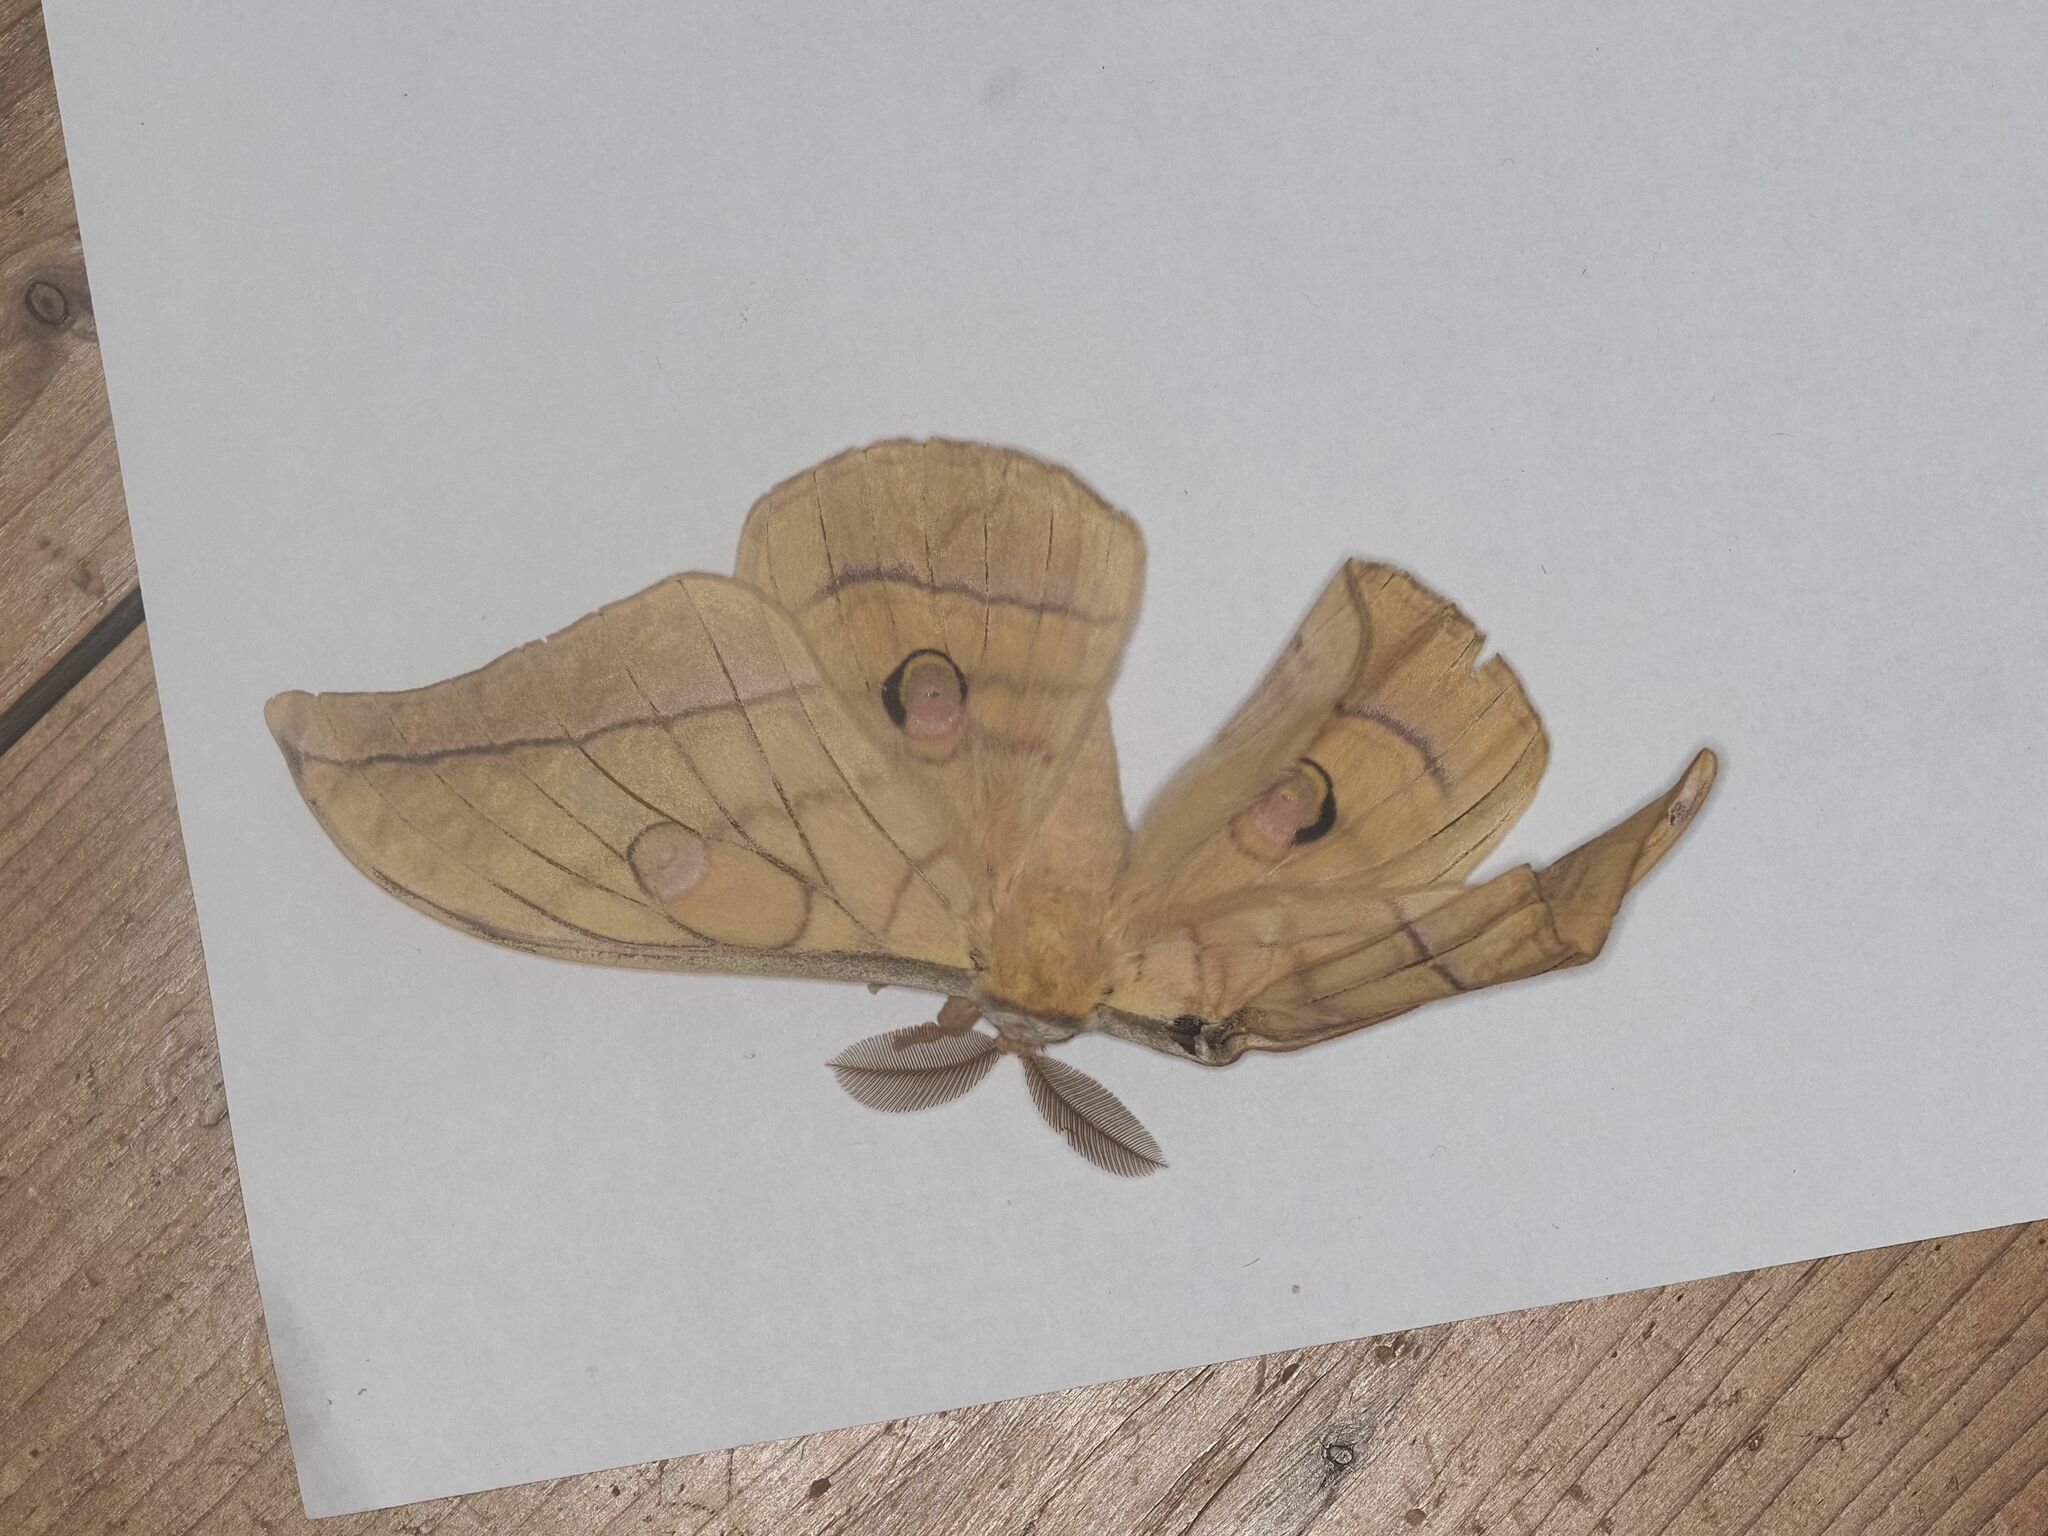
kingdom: Animalia
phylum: Arthropoda
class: Insecta
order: Lepidoptera
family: Saturniidae
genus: Antheraea
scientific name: Antheraea yamamai
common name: Japanese oak silk moth
